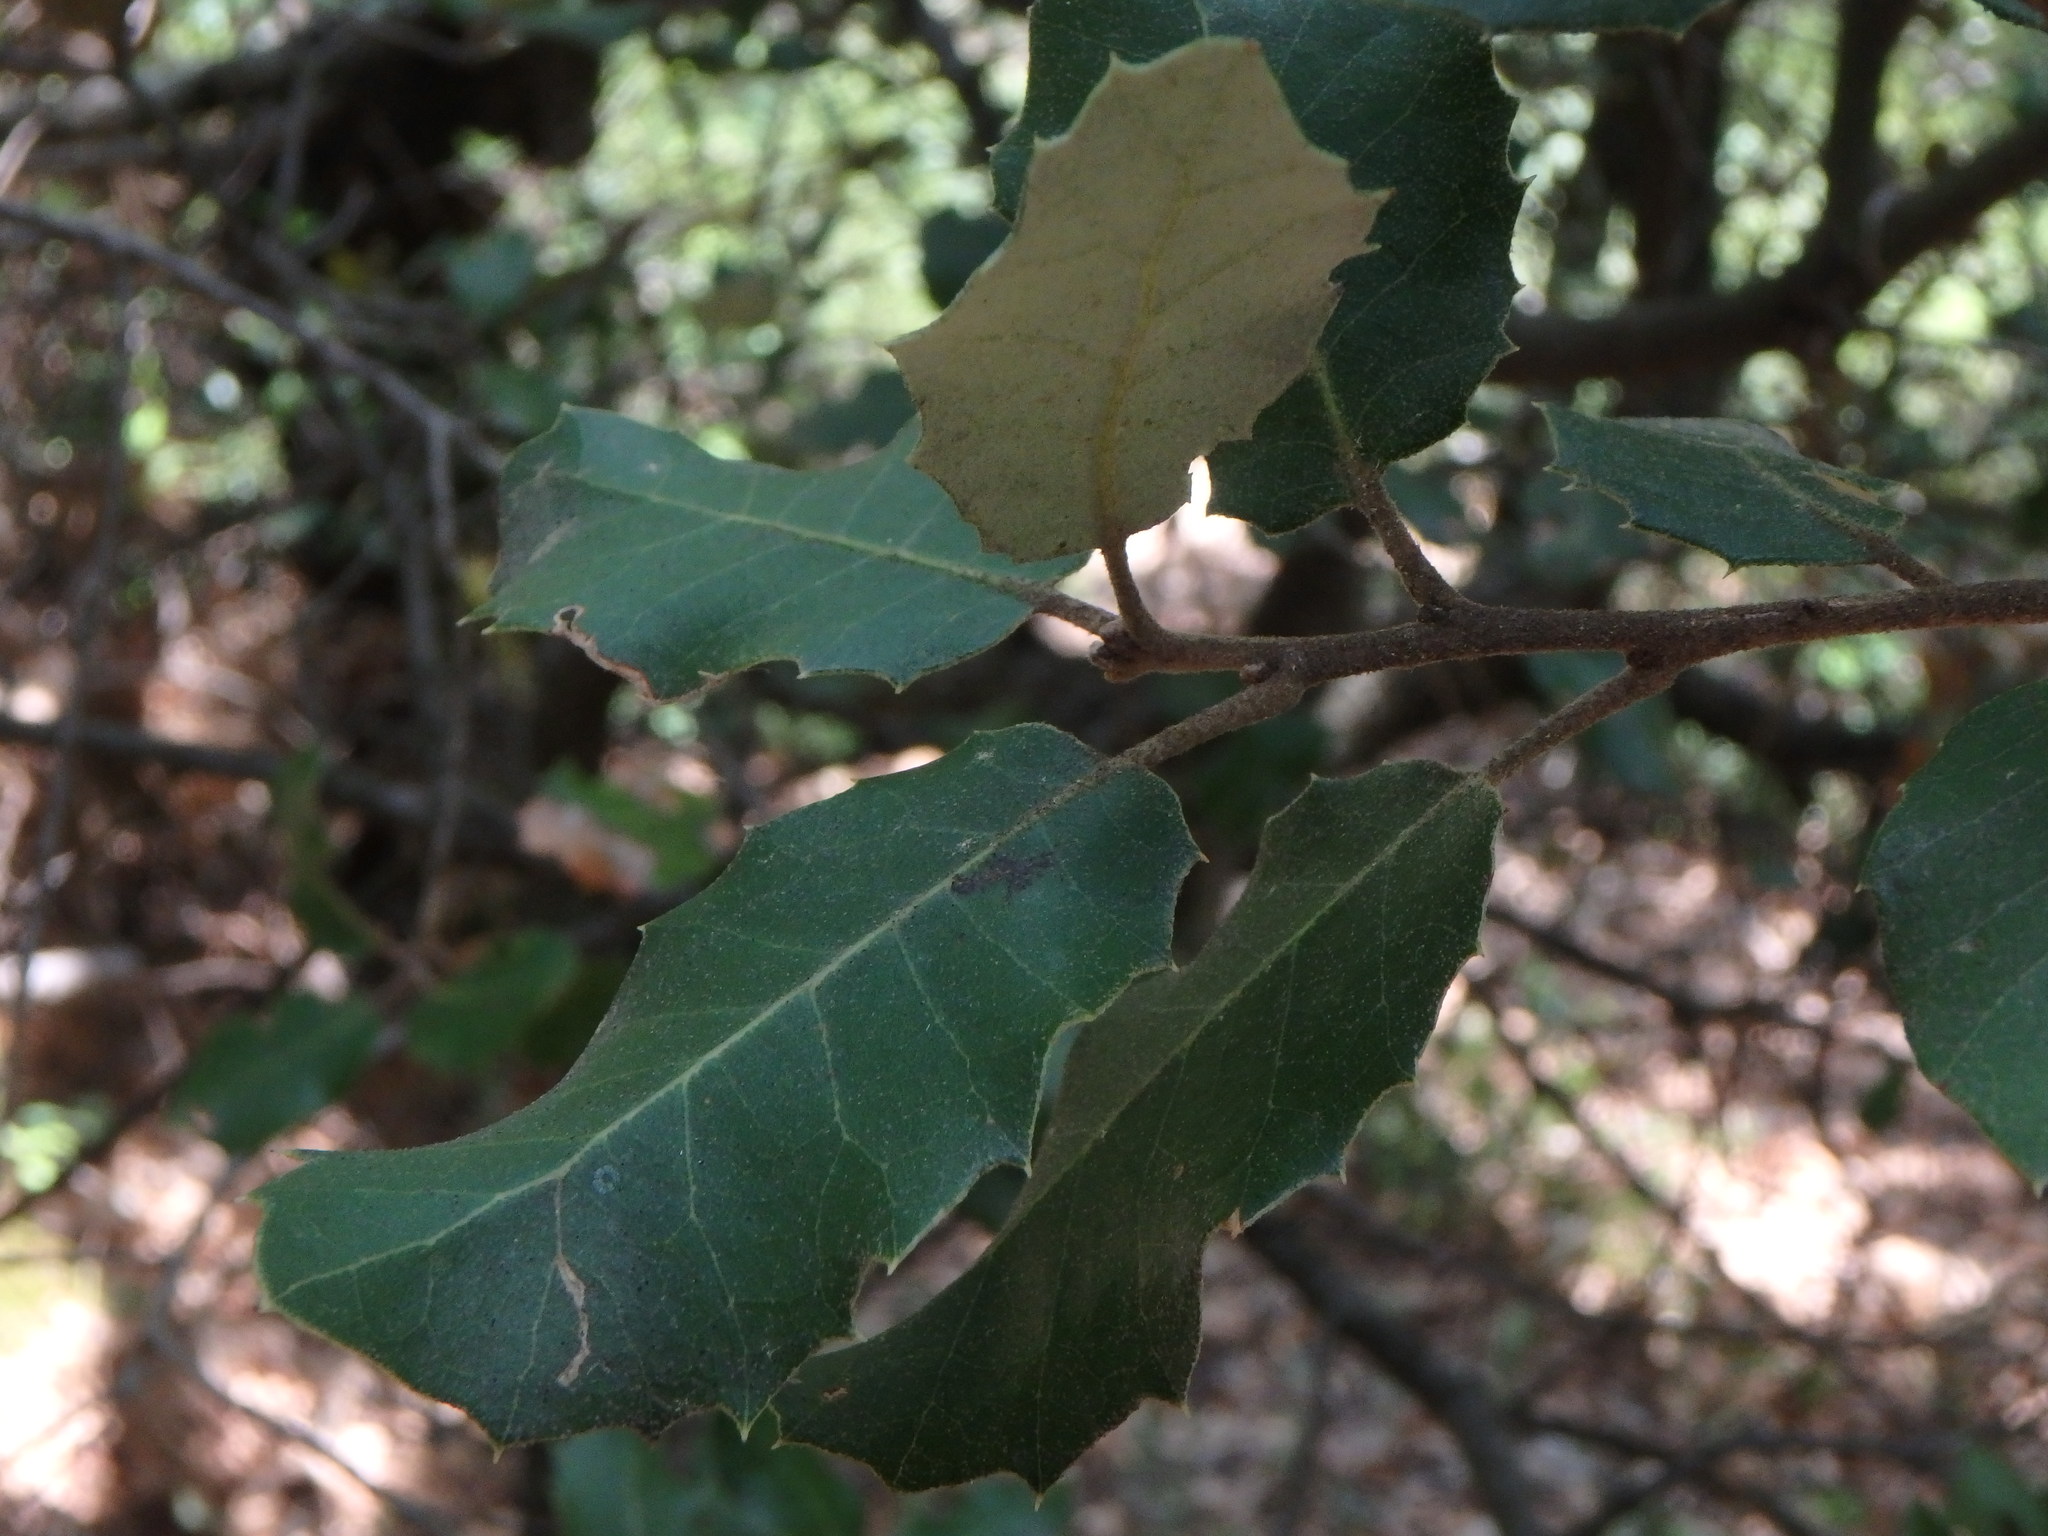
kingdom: Plantae
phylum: Tracheophyta
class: Magnoliopsida
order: Fagales
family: Fagaceae
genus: Quercus
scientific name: Quercus ilex
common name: Evergreen oak
